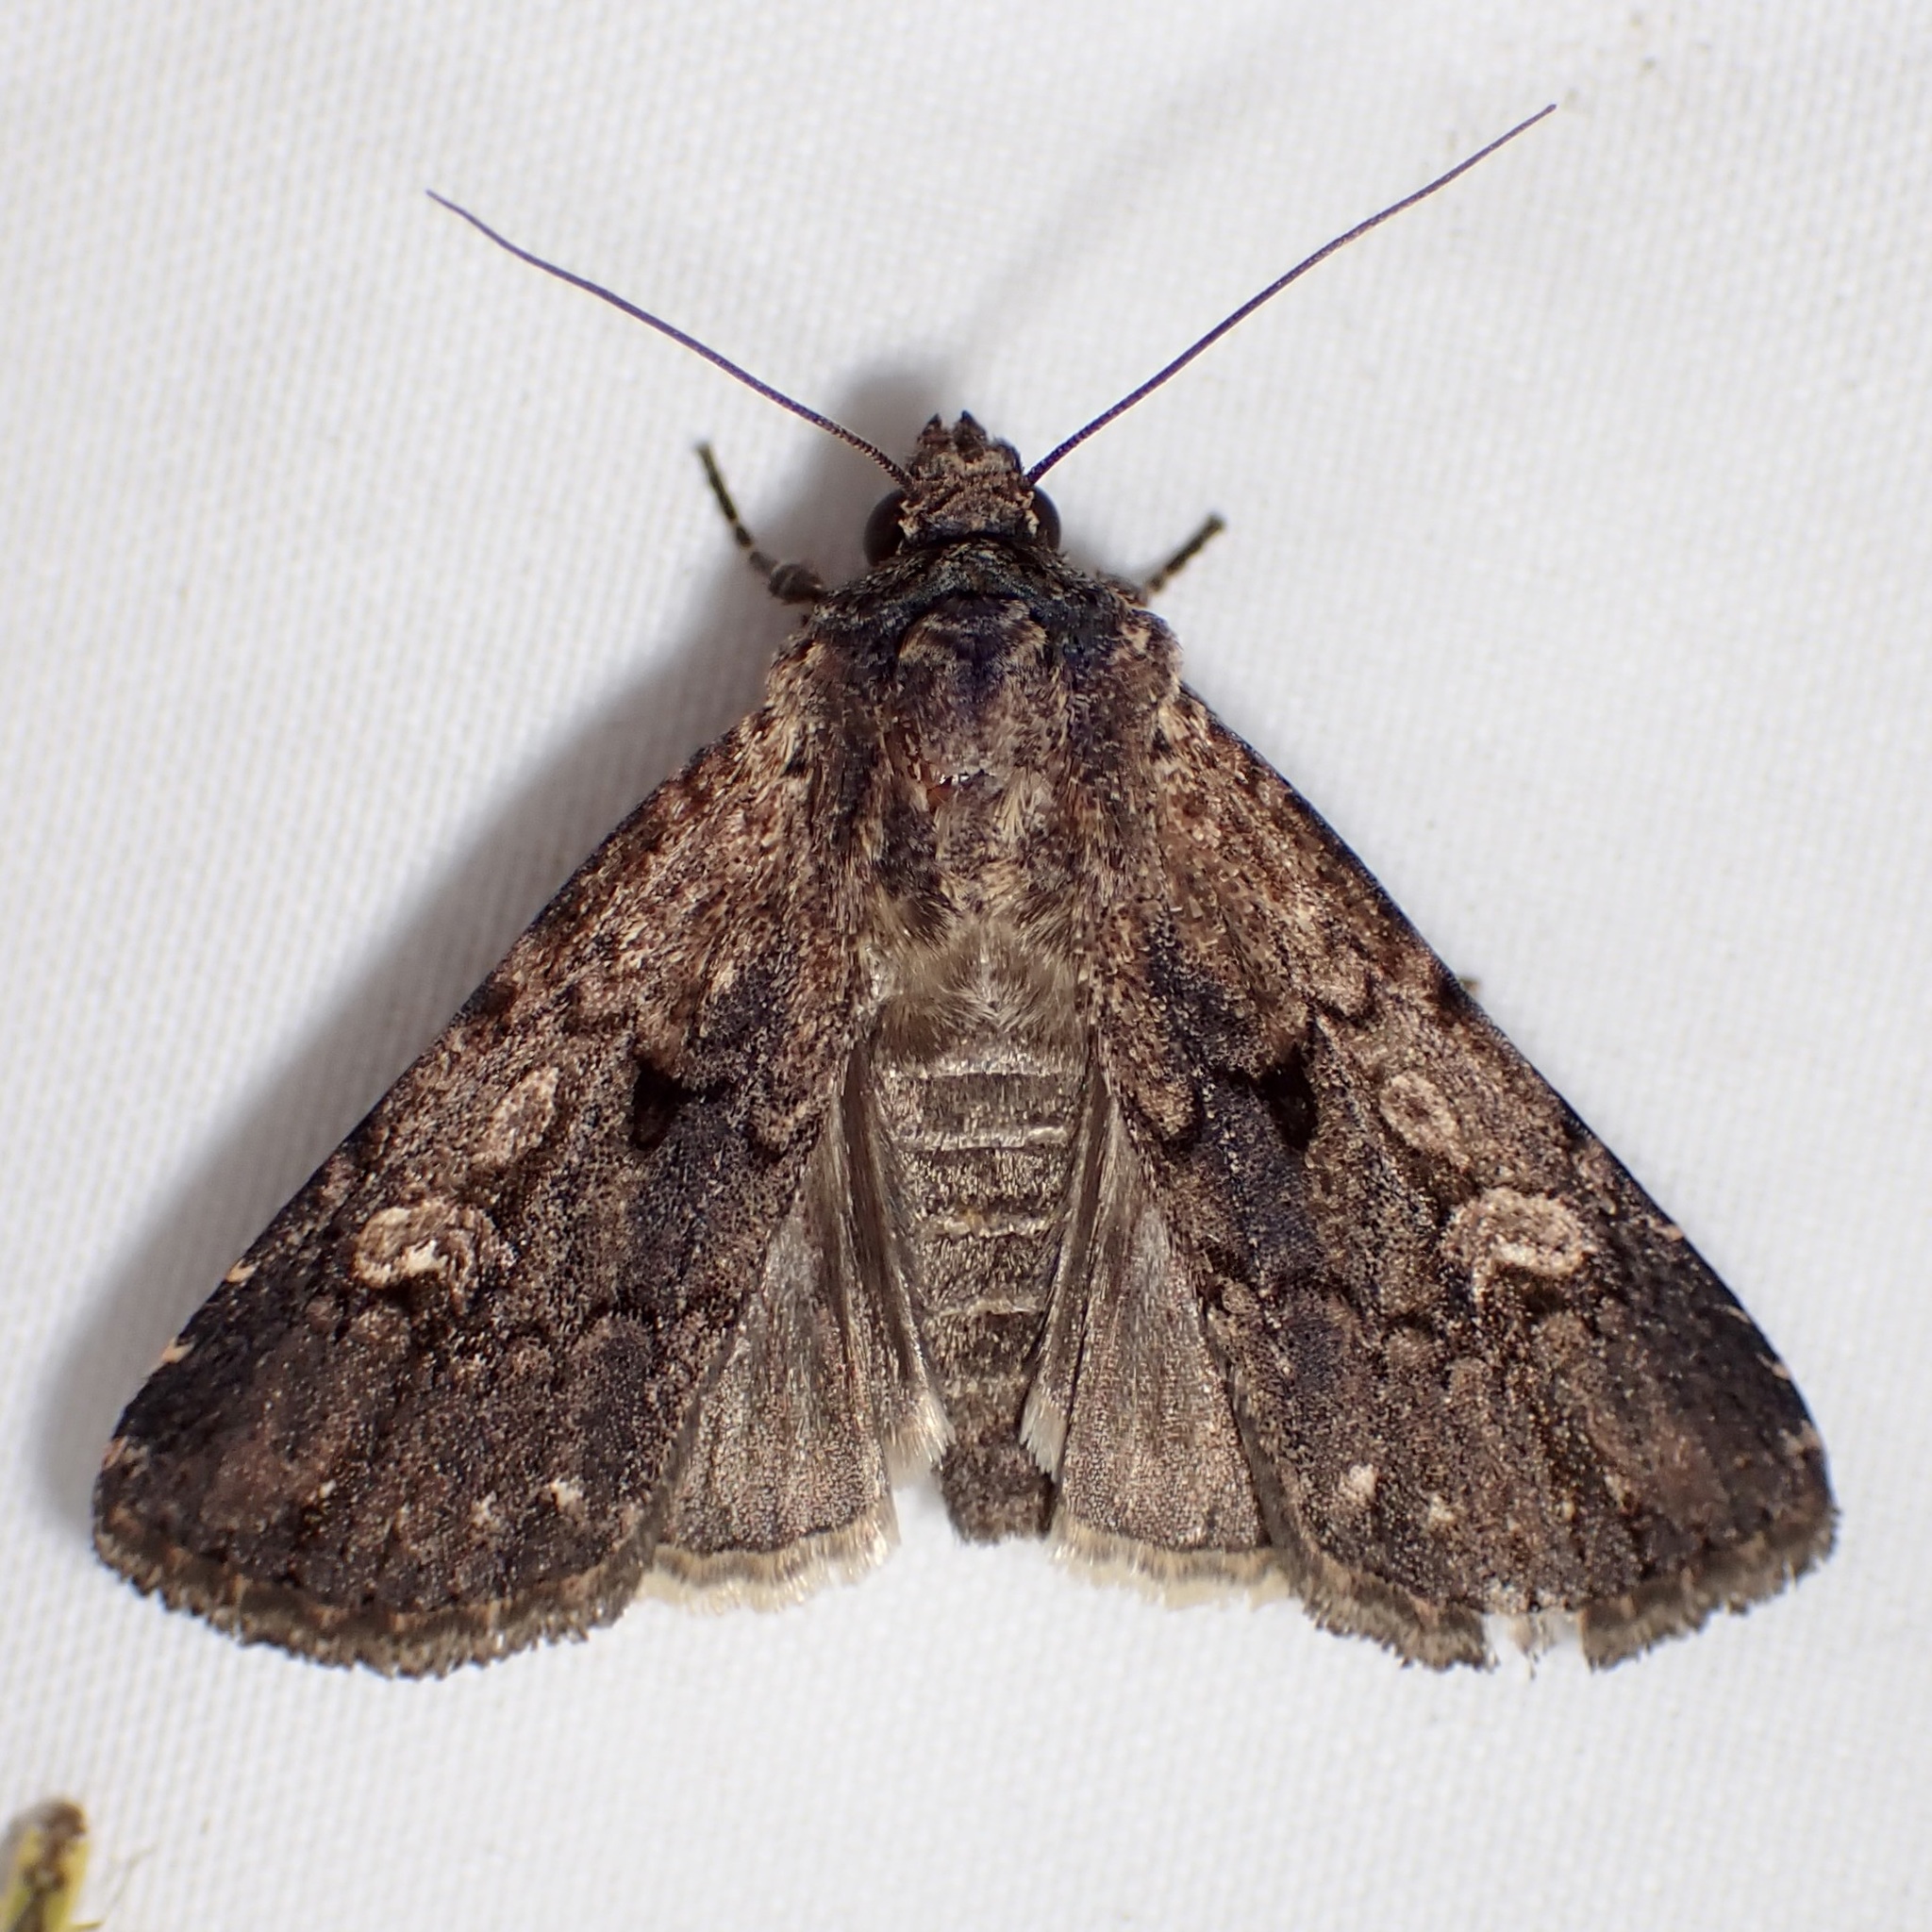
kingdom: Animalia
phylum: Arthropoda
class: Insecta
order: Lepidoptera
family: Noctuidae
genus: Dichagyris
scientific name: Dichagyris proclivis
